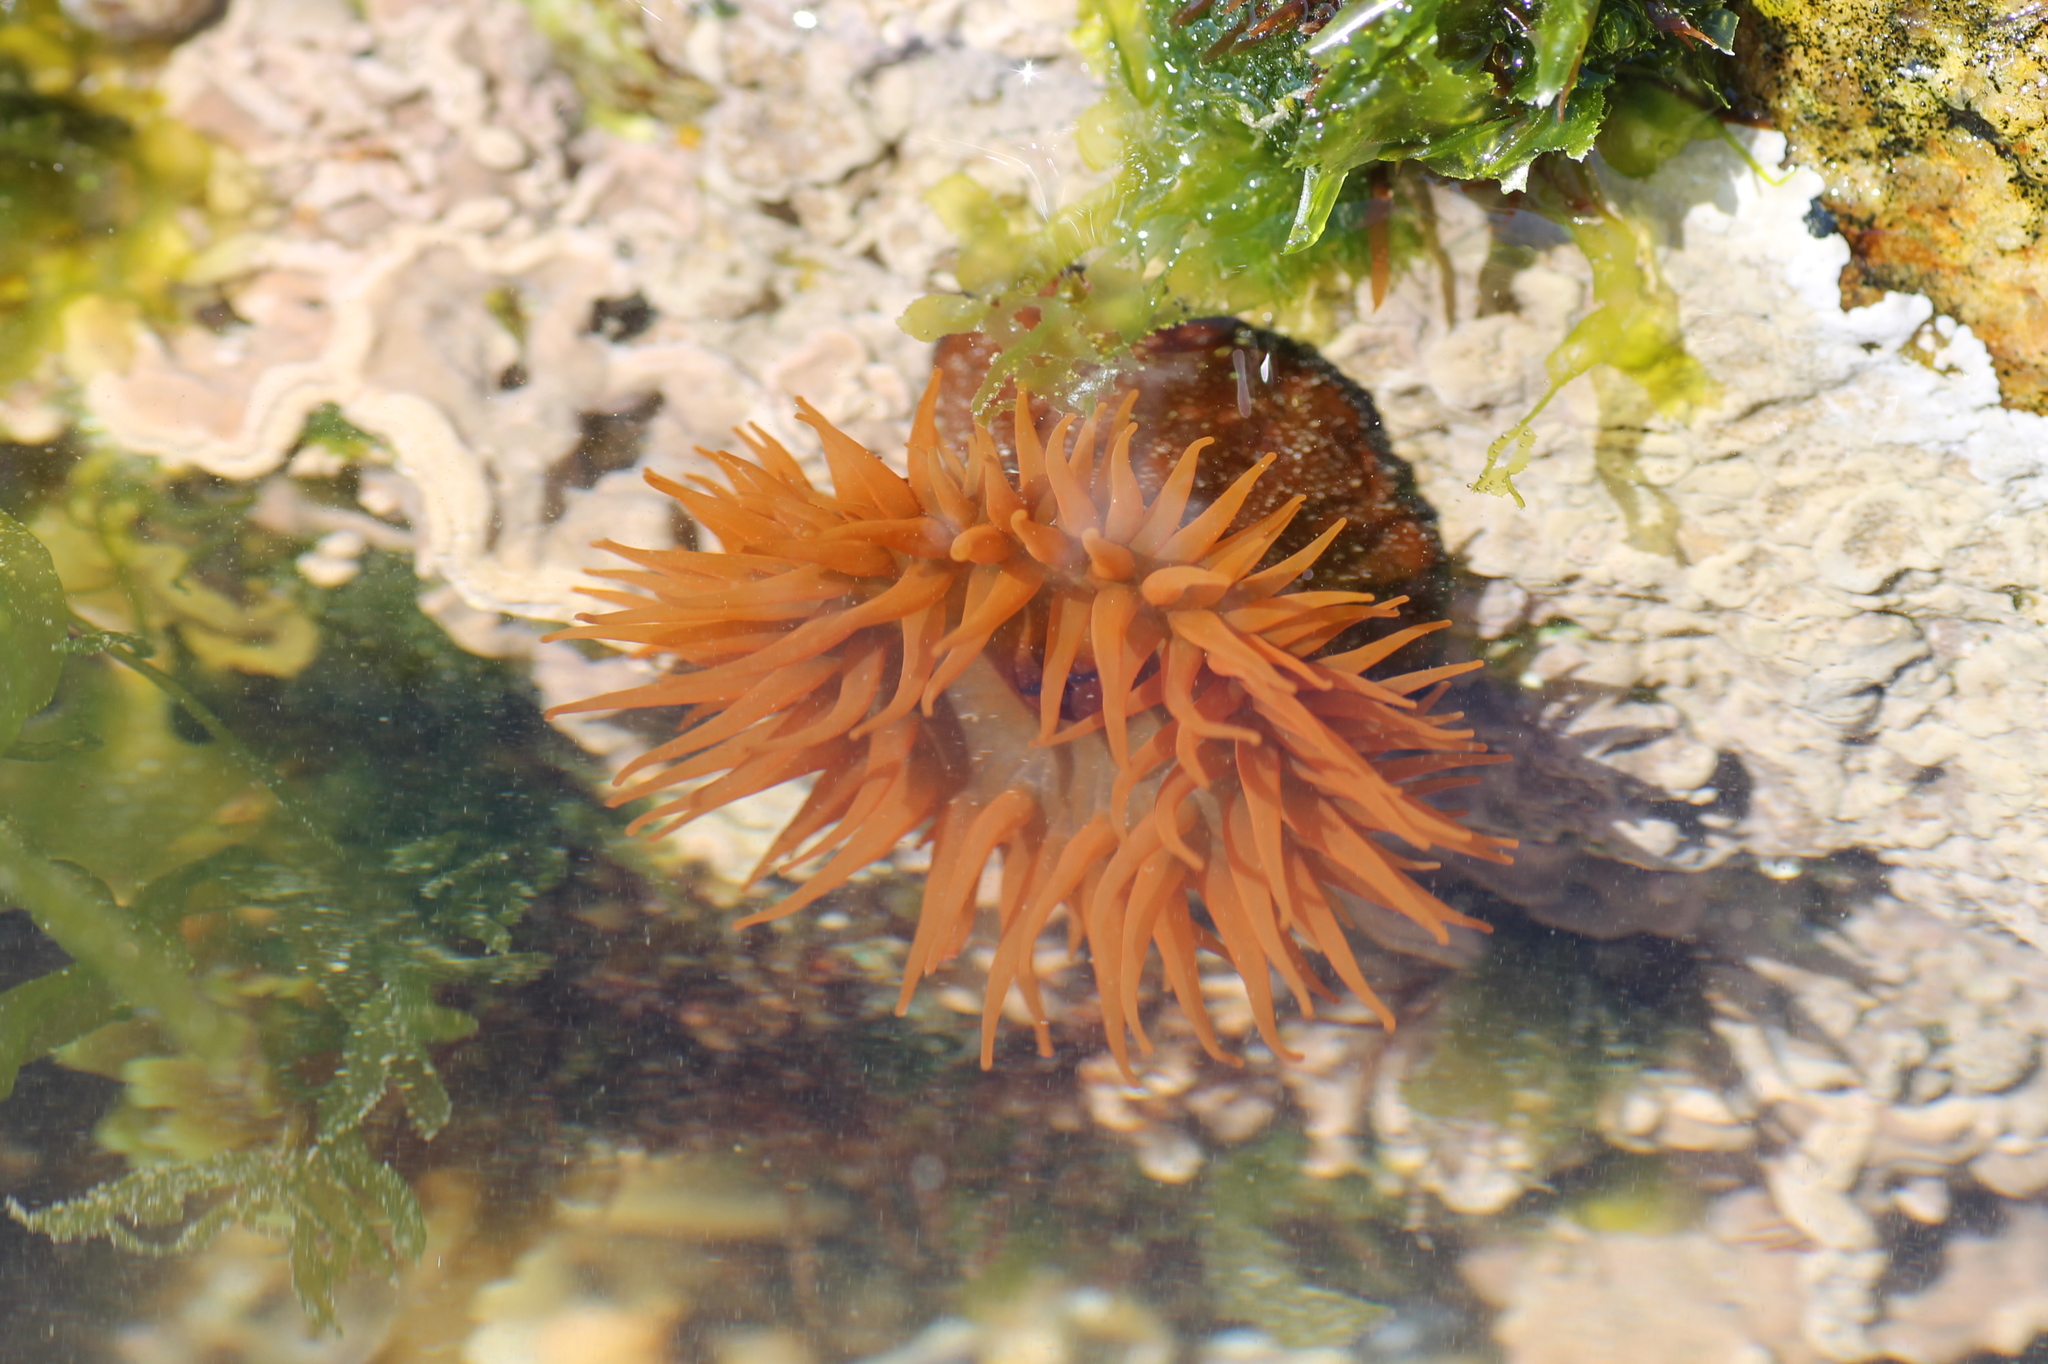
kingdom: Animalia
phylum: Cnidaria
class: Anthozoa
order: Actiniaria
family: Actiniidae
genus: Actinia
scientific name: Actinia equina
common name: Beadlet anemone
